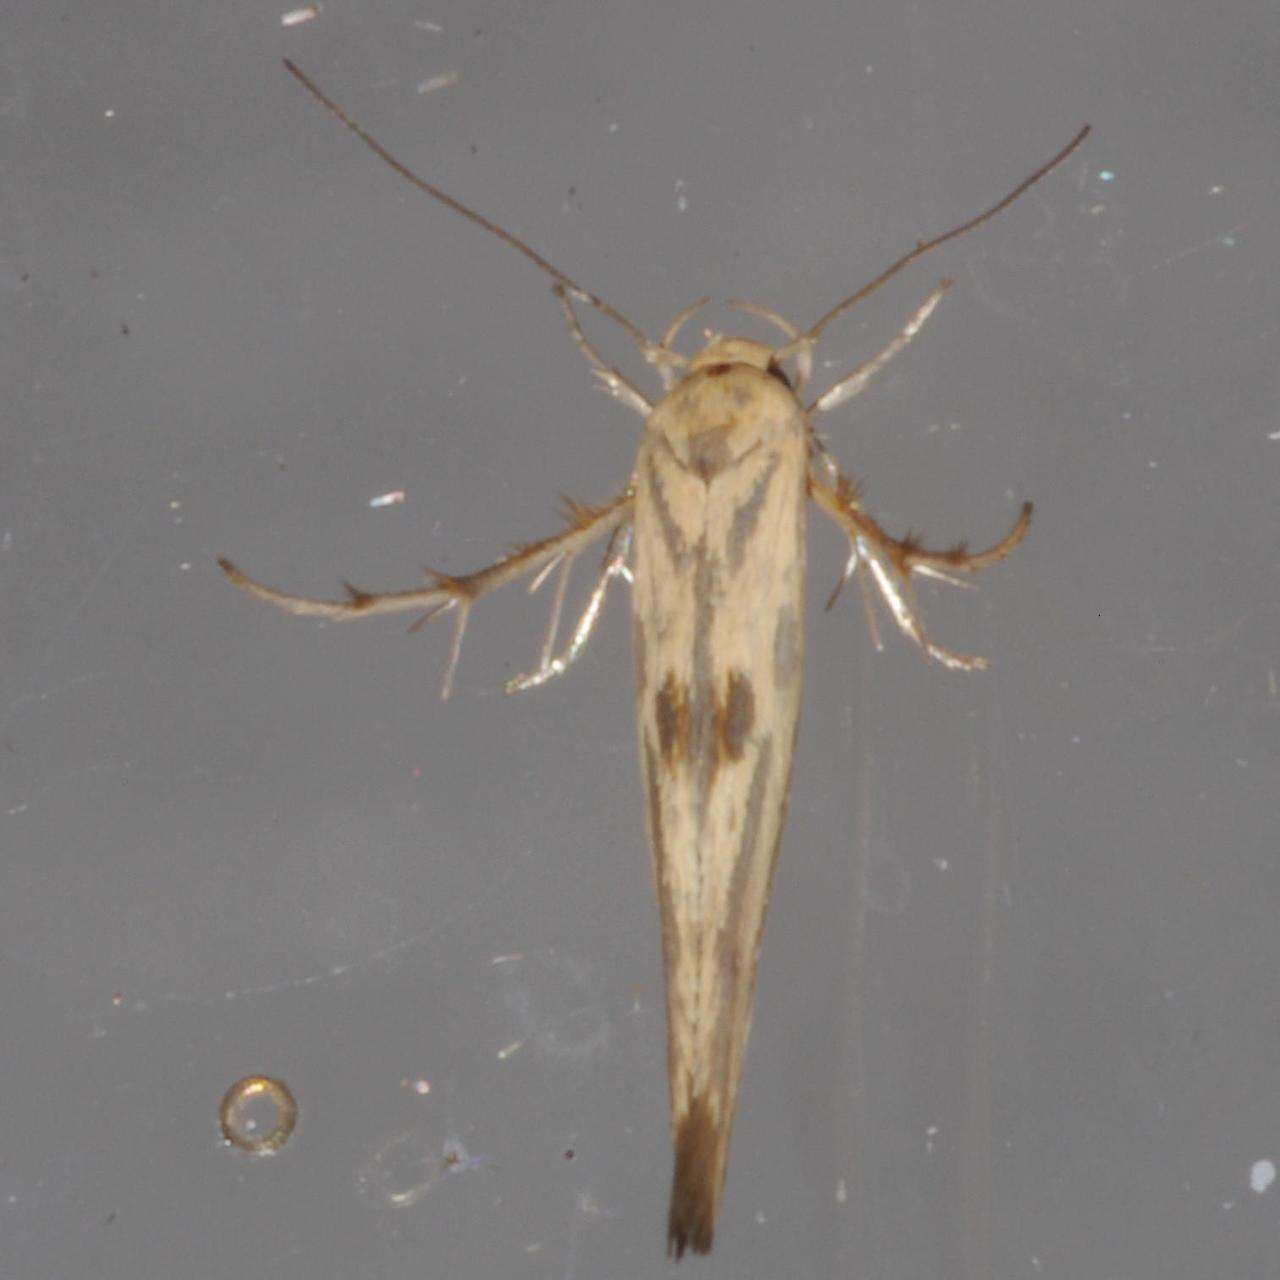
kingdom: Animalia
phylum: Arthropoda
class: Insecta
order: Lepidoptera
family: Stathmopodidae
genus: Stathmopoda
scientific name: Stathmopoda hyposcia
